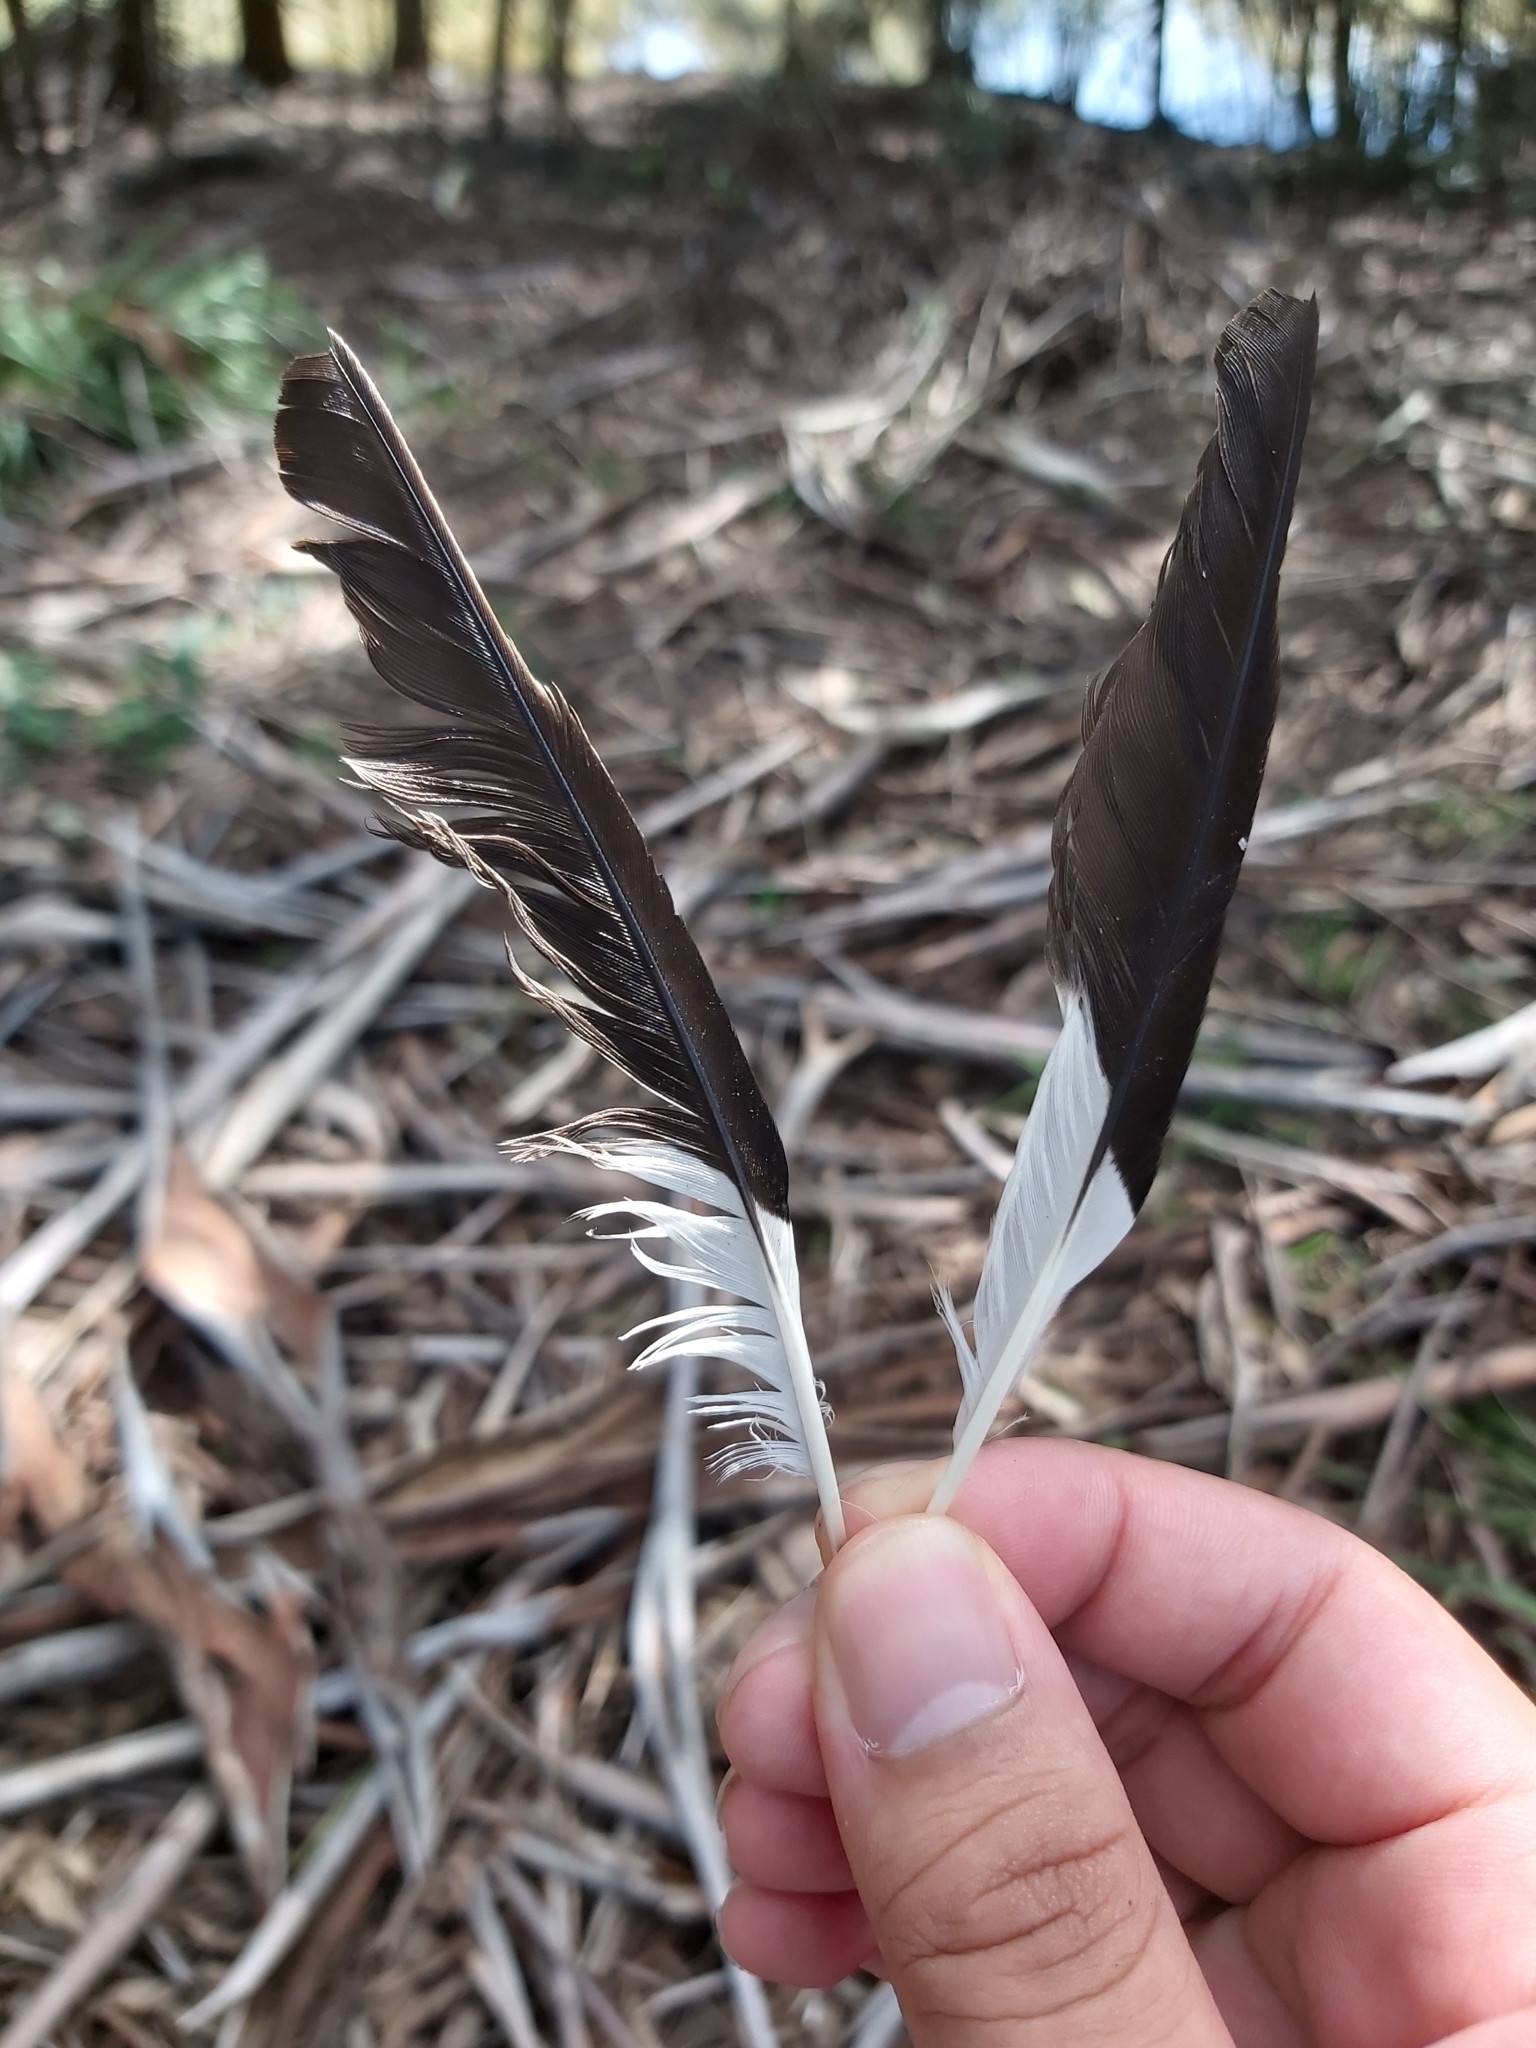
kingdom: Animalia
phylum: Chordata
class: Aves
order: Passeriformes
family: Sturnidae
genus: Acridotheres
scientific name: Acridotheres tristis
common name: Common myna
